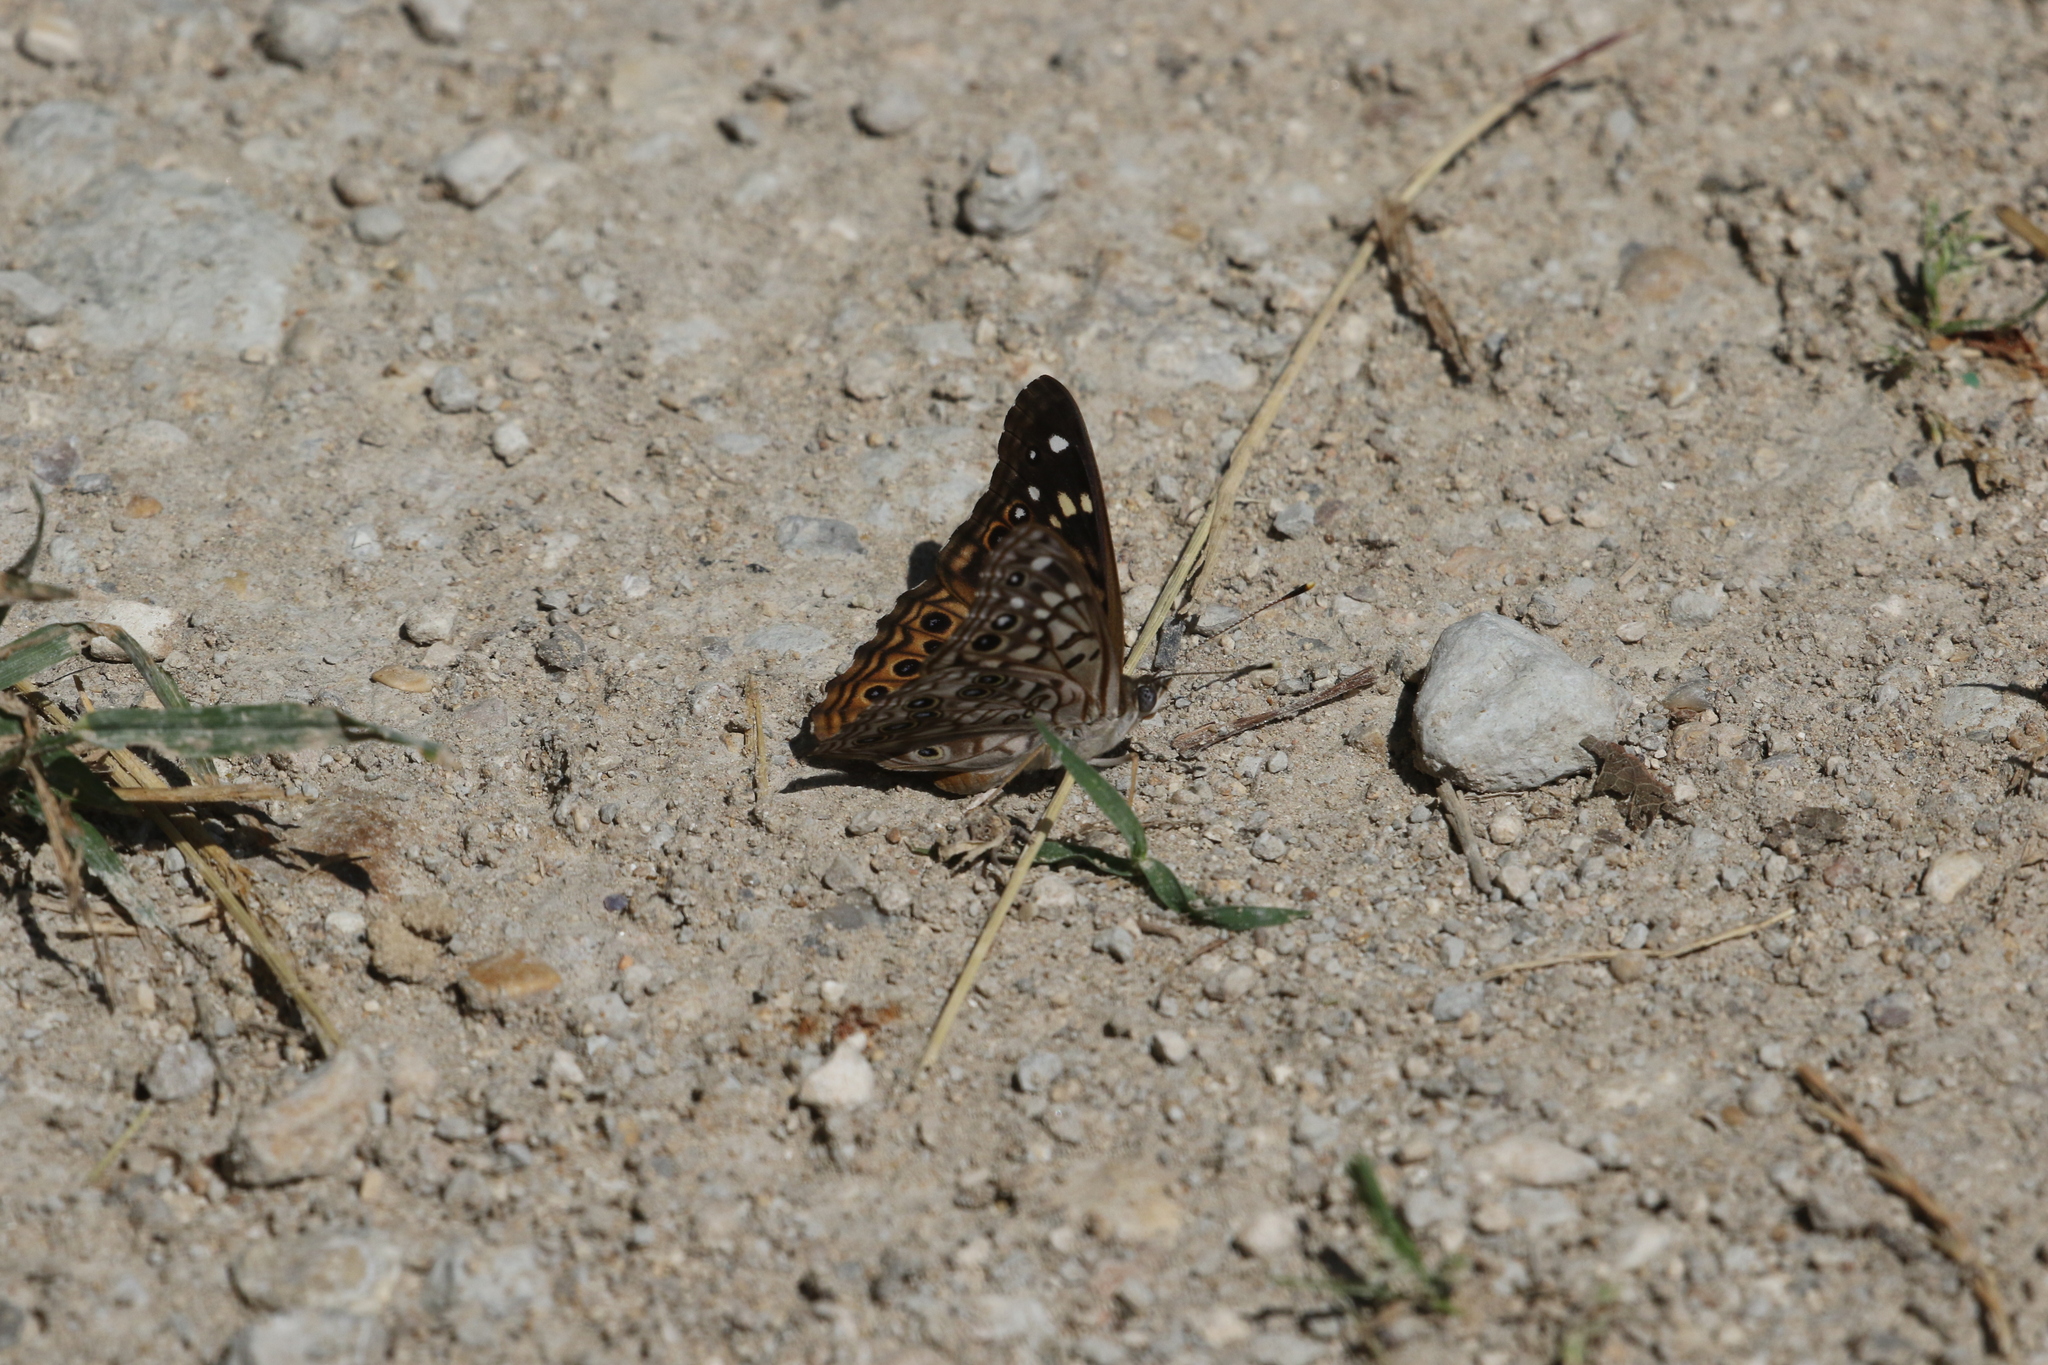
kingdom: Animalia
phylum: Arthropoda
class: Insecta
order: Lepidoptera
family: Nymphalidae
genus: Asterocampa
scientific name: Asterocampa celtis
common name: Hackberry emperor
